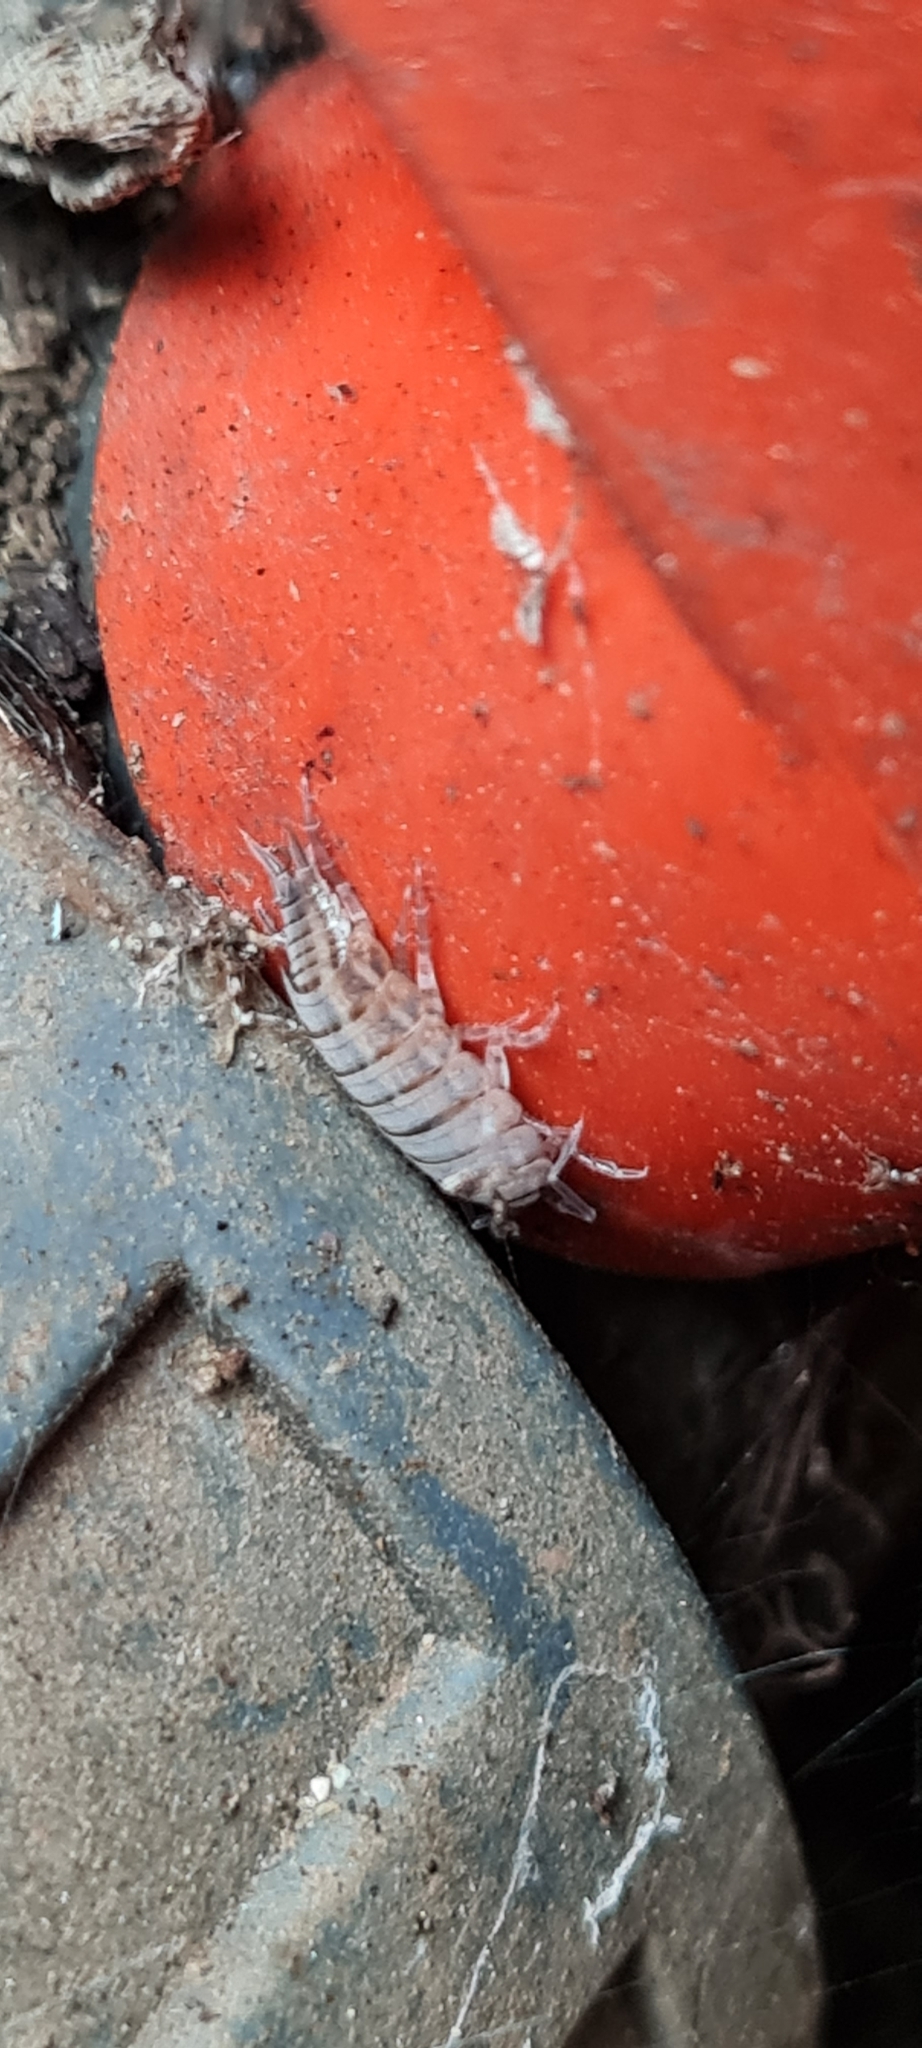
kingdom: Animalia
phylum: Arthropoda
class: Malacostraca
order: Isopoda
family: Porcellionidae
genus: Porcellionides
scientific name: Porcellionides sexfasciatus
